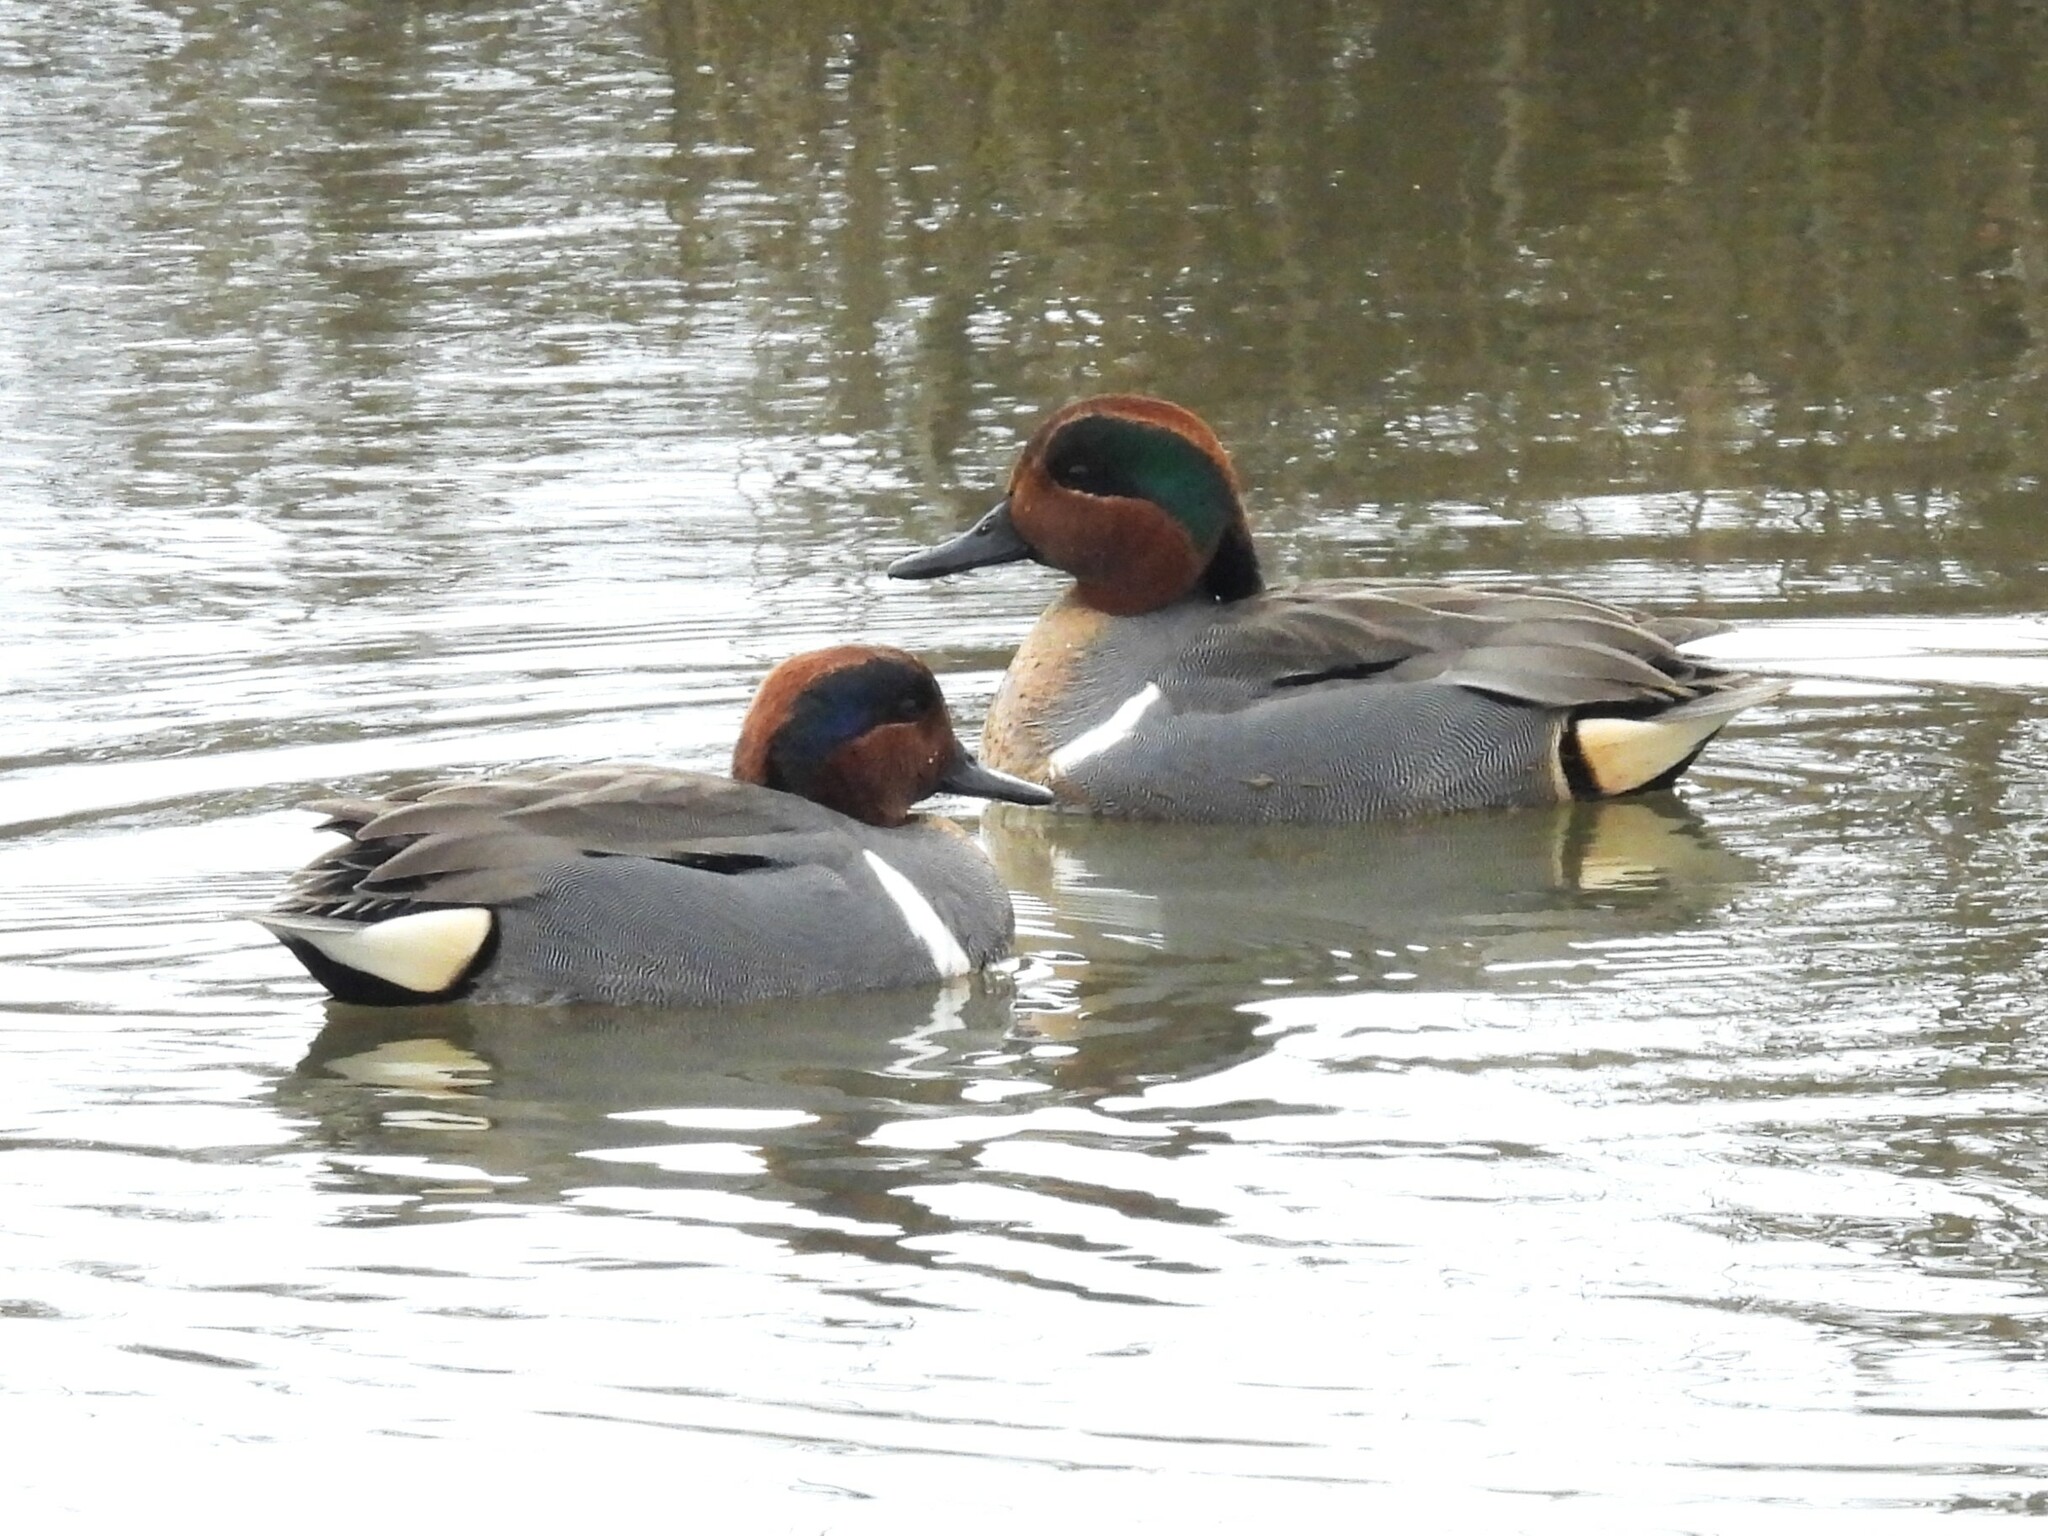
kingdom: Animalia
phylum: Chordata
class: Aves
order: Anseriformes
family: Anatidae
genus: Anas
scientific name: Anas crecca
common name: Eurasian teal
